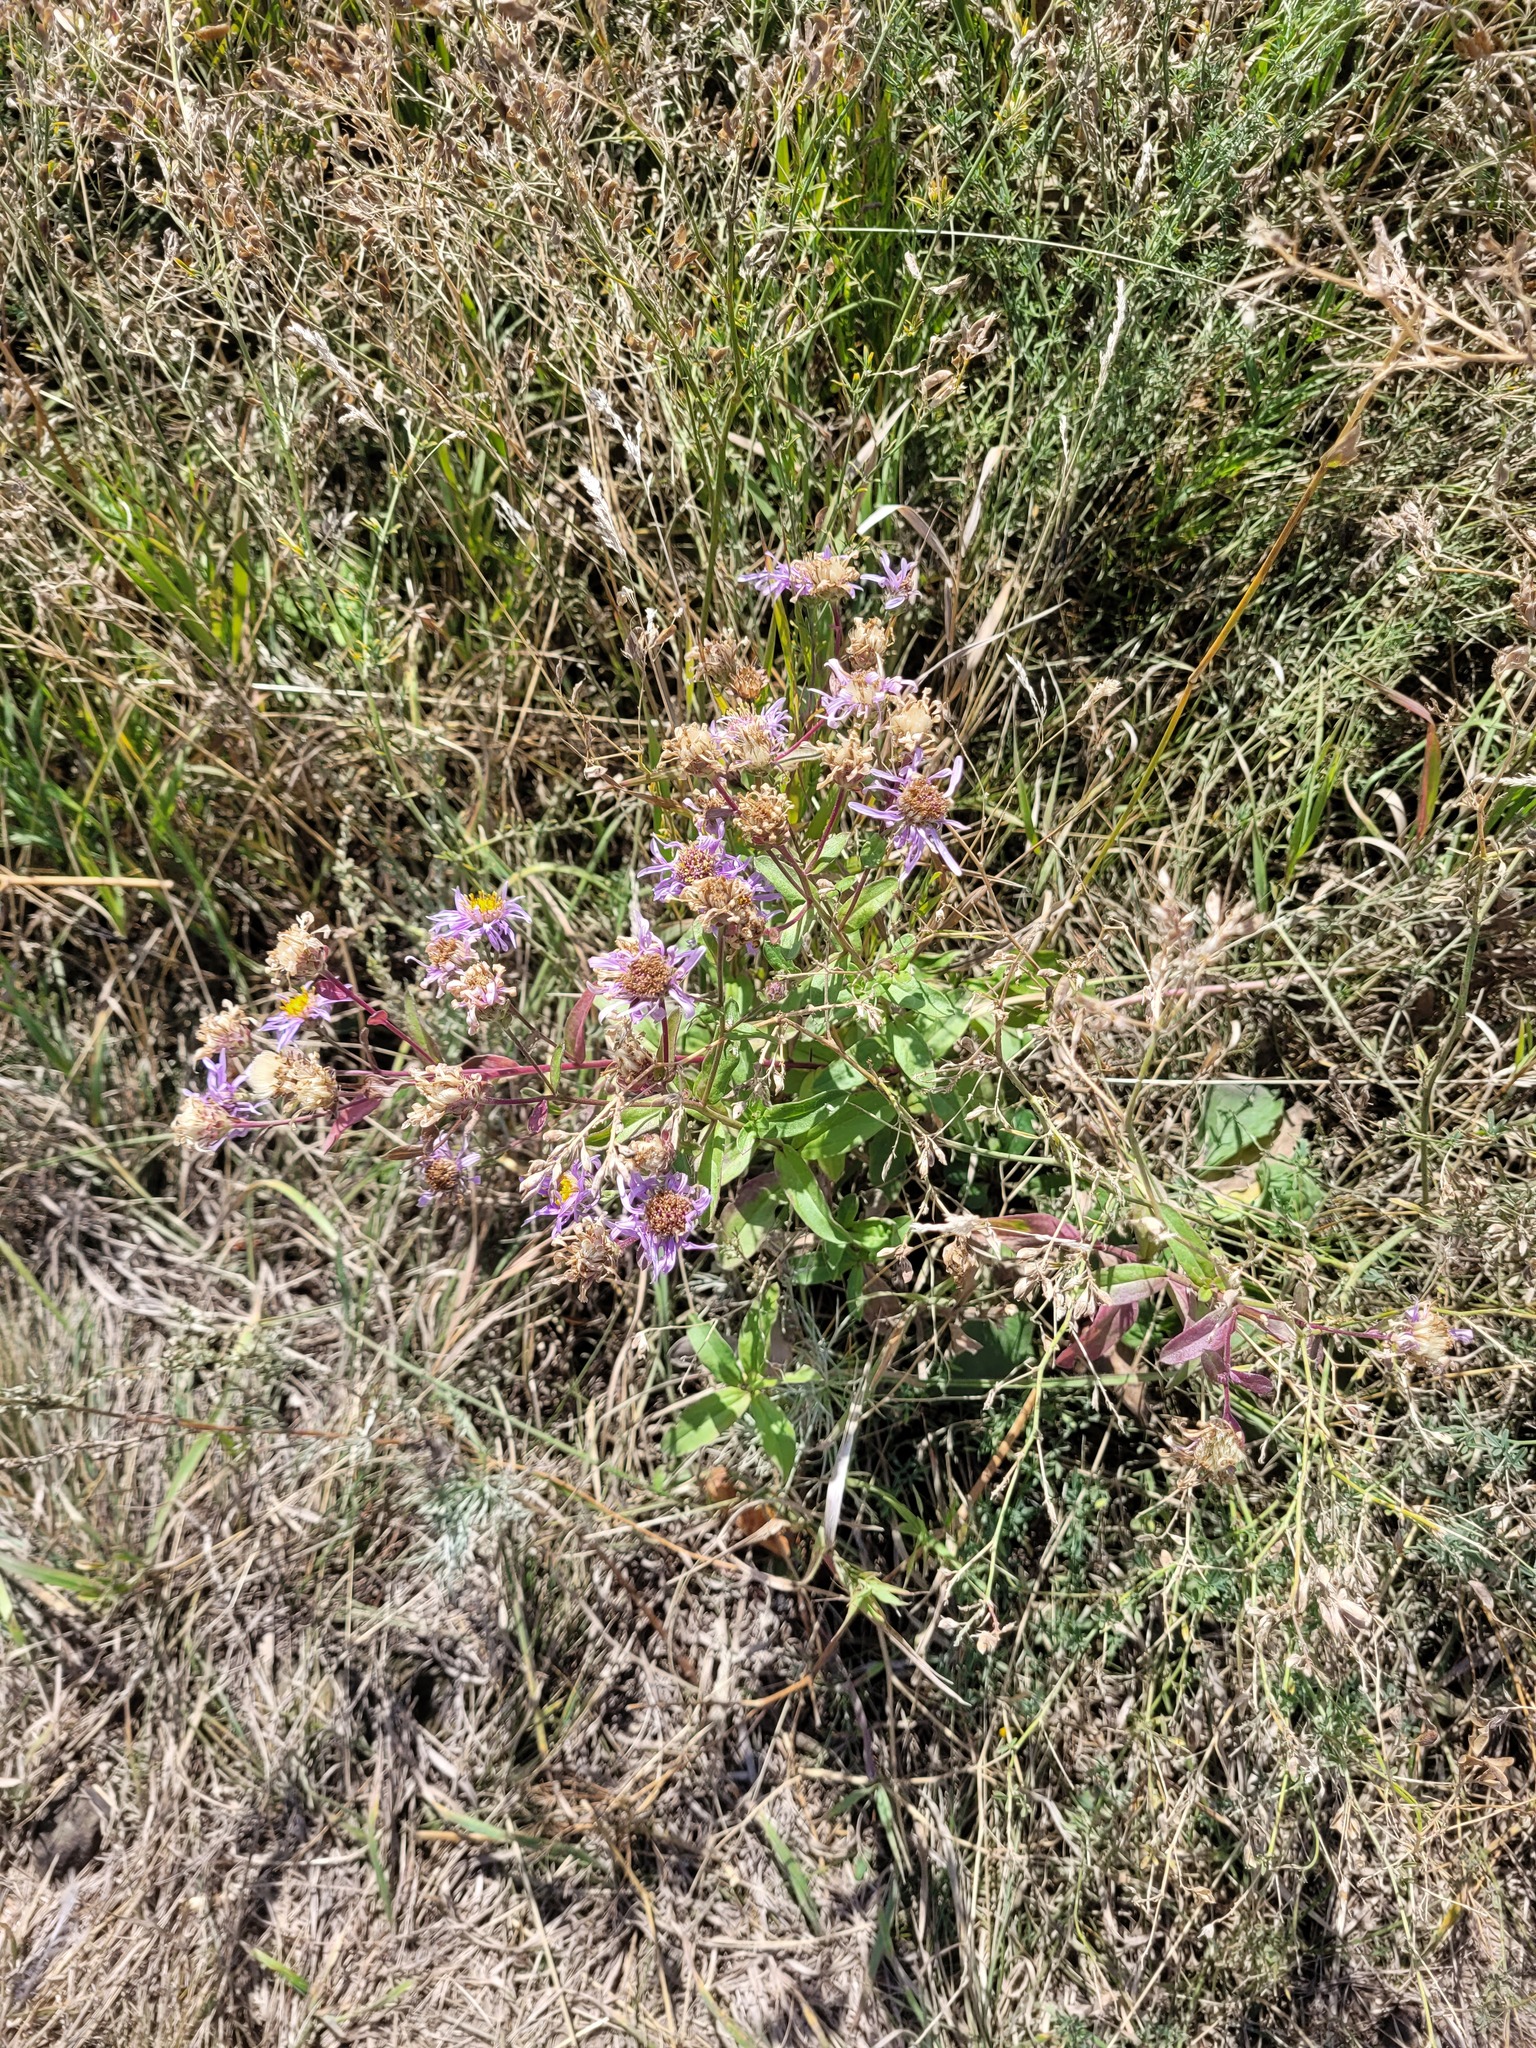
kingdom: Plantae
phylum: Tracheophyta
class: Magnoliopsida
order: Asterales
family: Asteraceae
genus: Aster
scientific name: Aster amellus
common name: European michaelmas daisy
